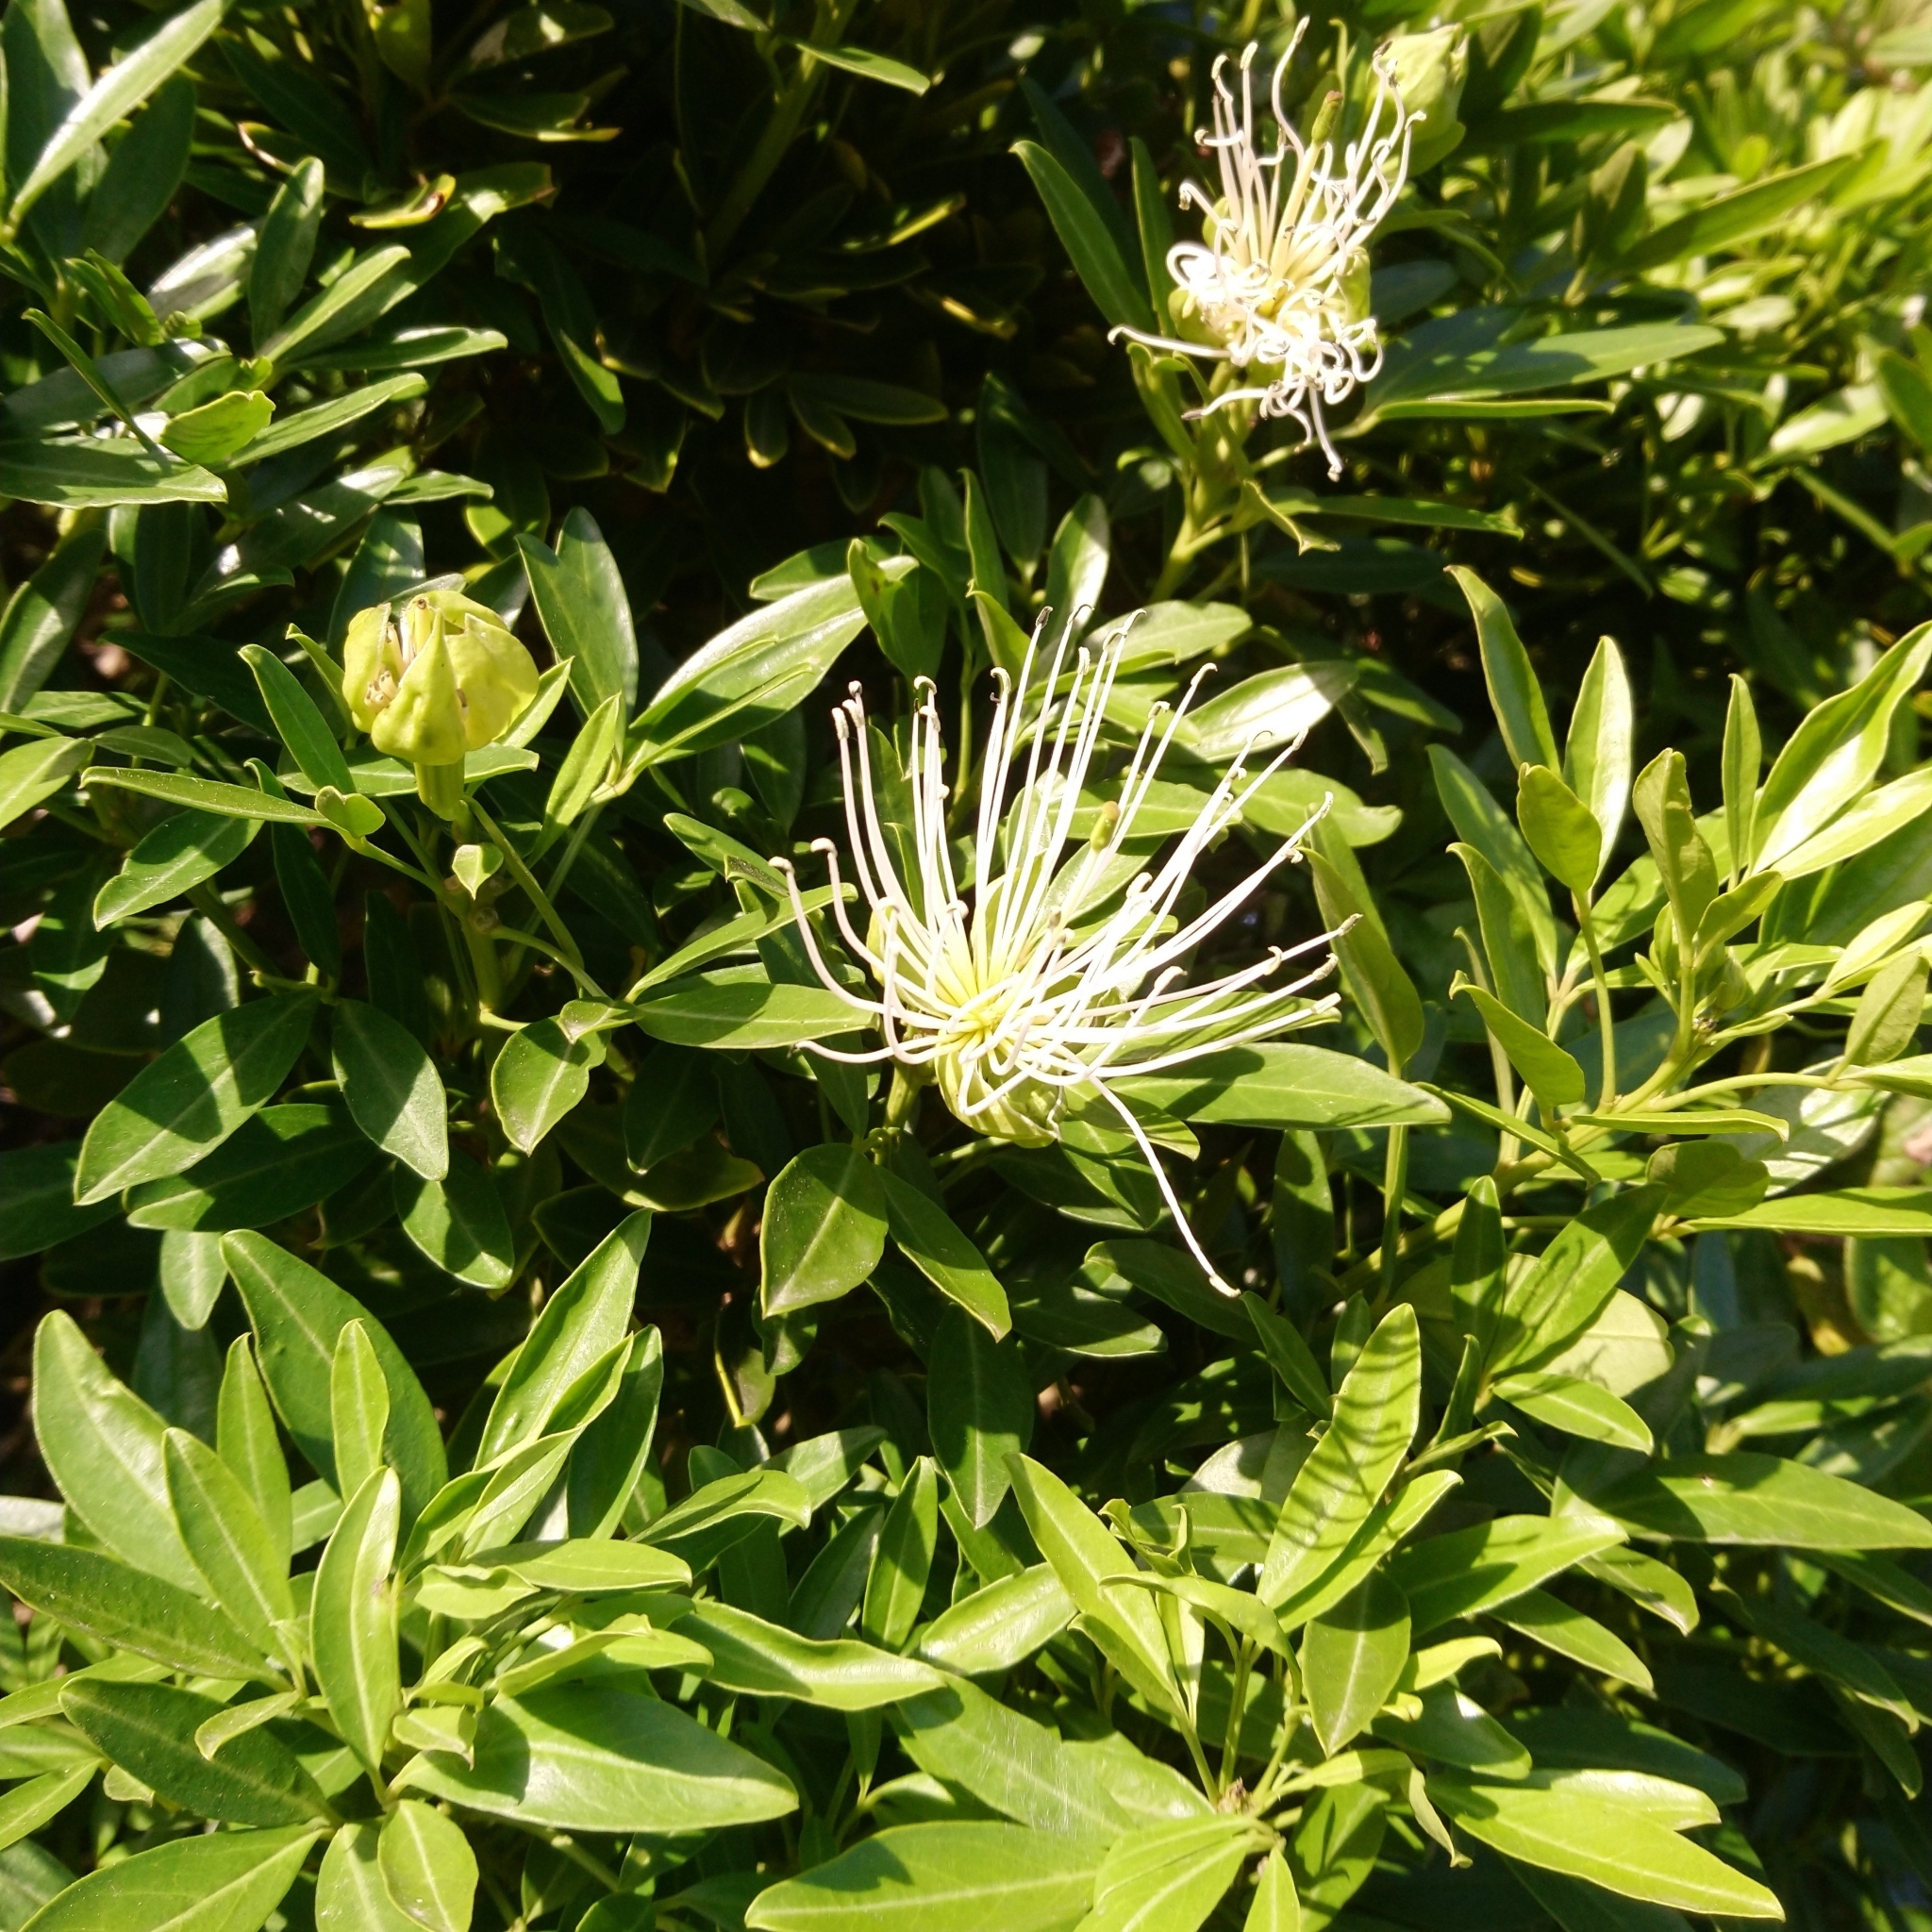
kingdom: Plantae
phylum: Tracheophyta
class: Magnoliopsida
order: Brassicales
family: Capparaceae
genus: Maerua
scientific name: Maerua cafra
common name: Bush maerua
